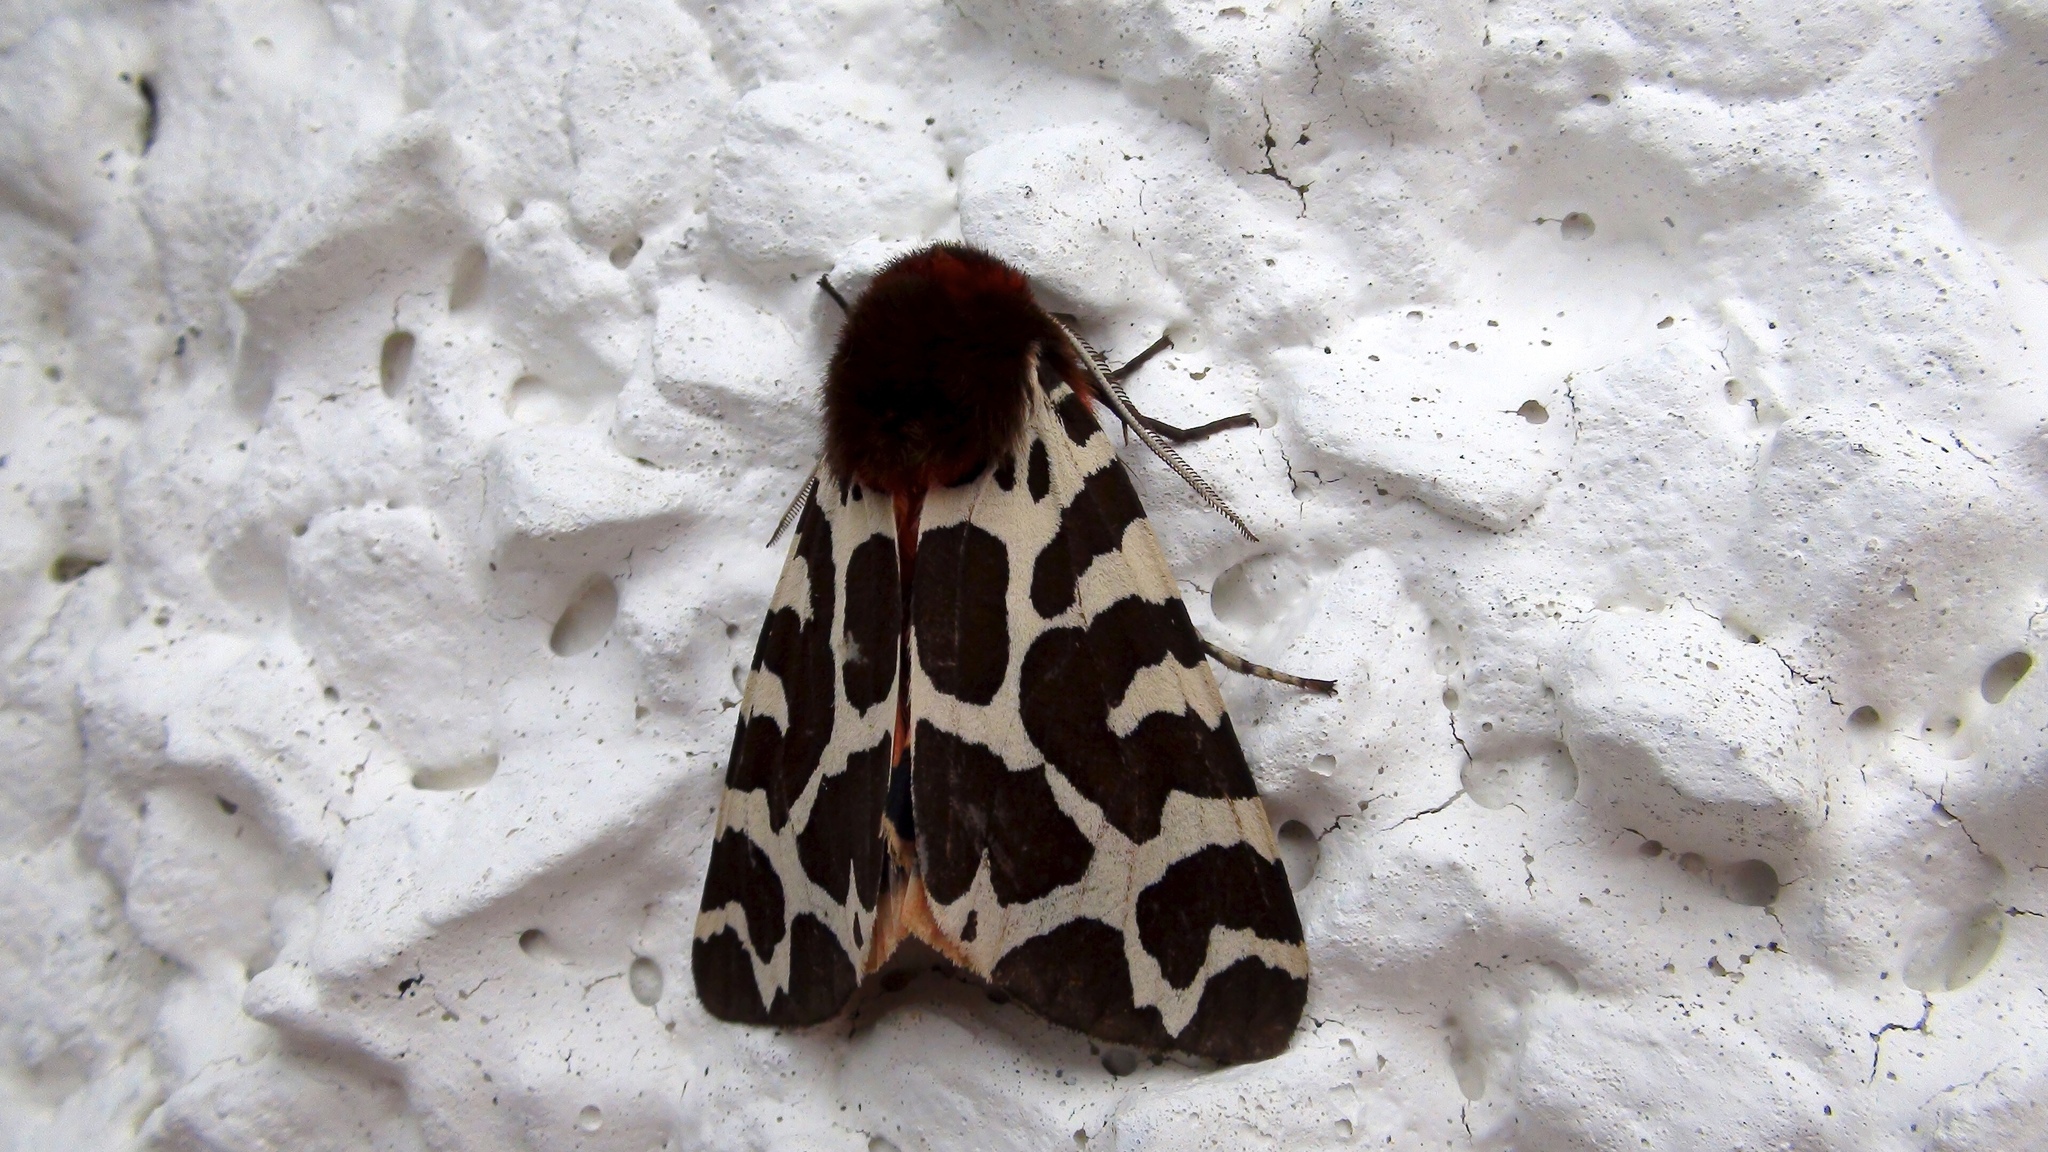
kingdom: Animalia
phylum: Arthropoda
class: Insecta
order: Lepidoptera
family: Erebidae
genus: Arctia
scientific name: Arctia caja
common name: Garden tiger
